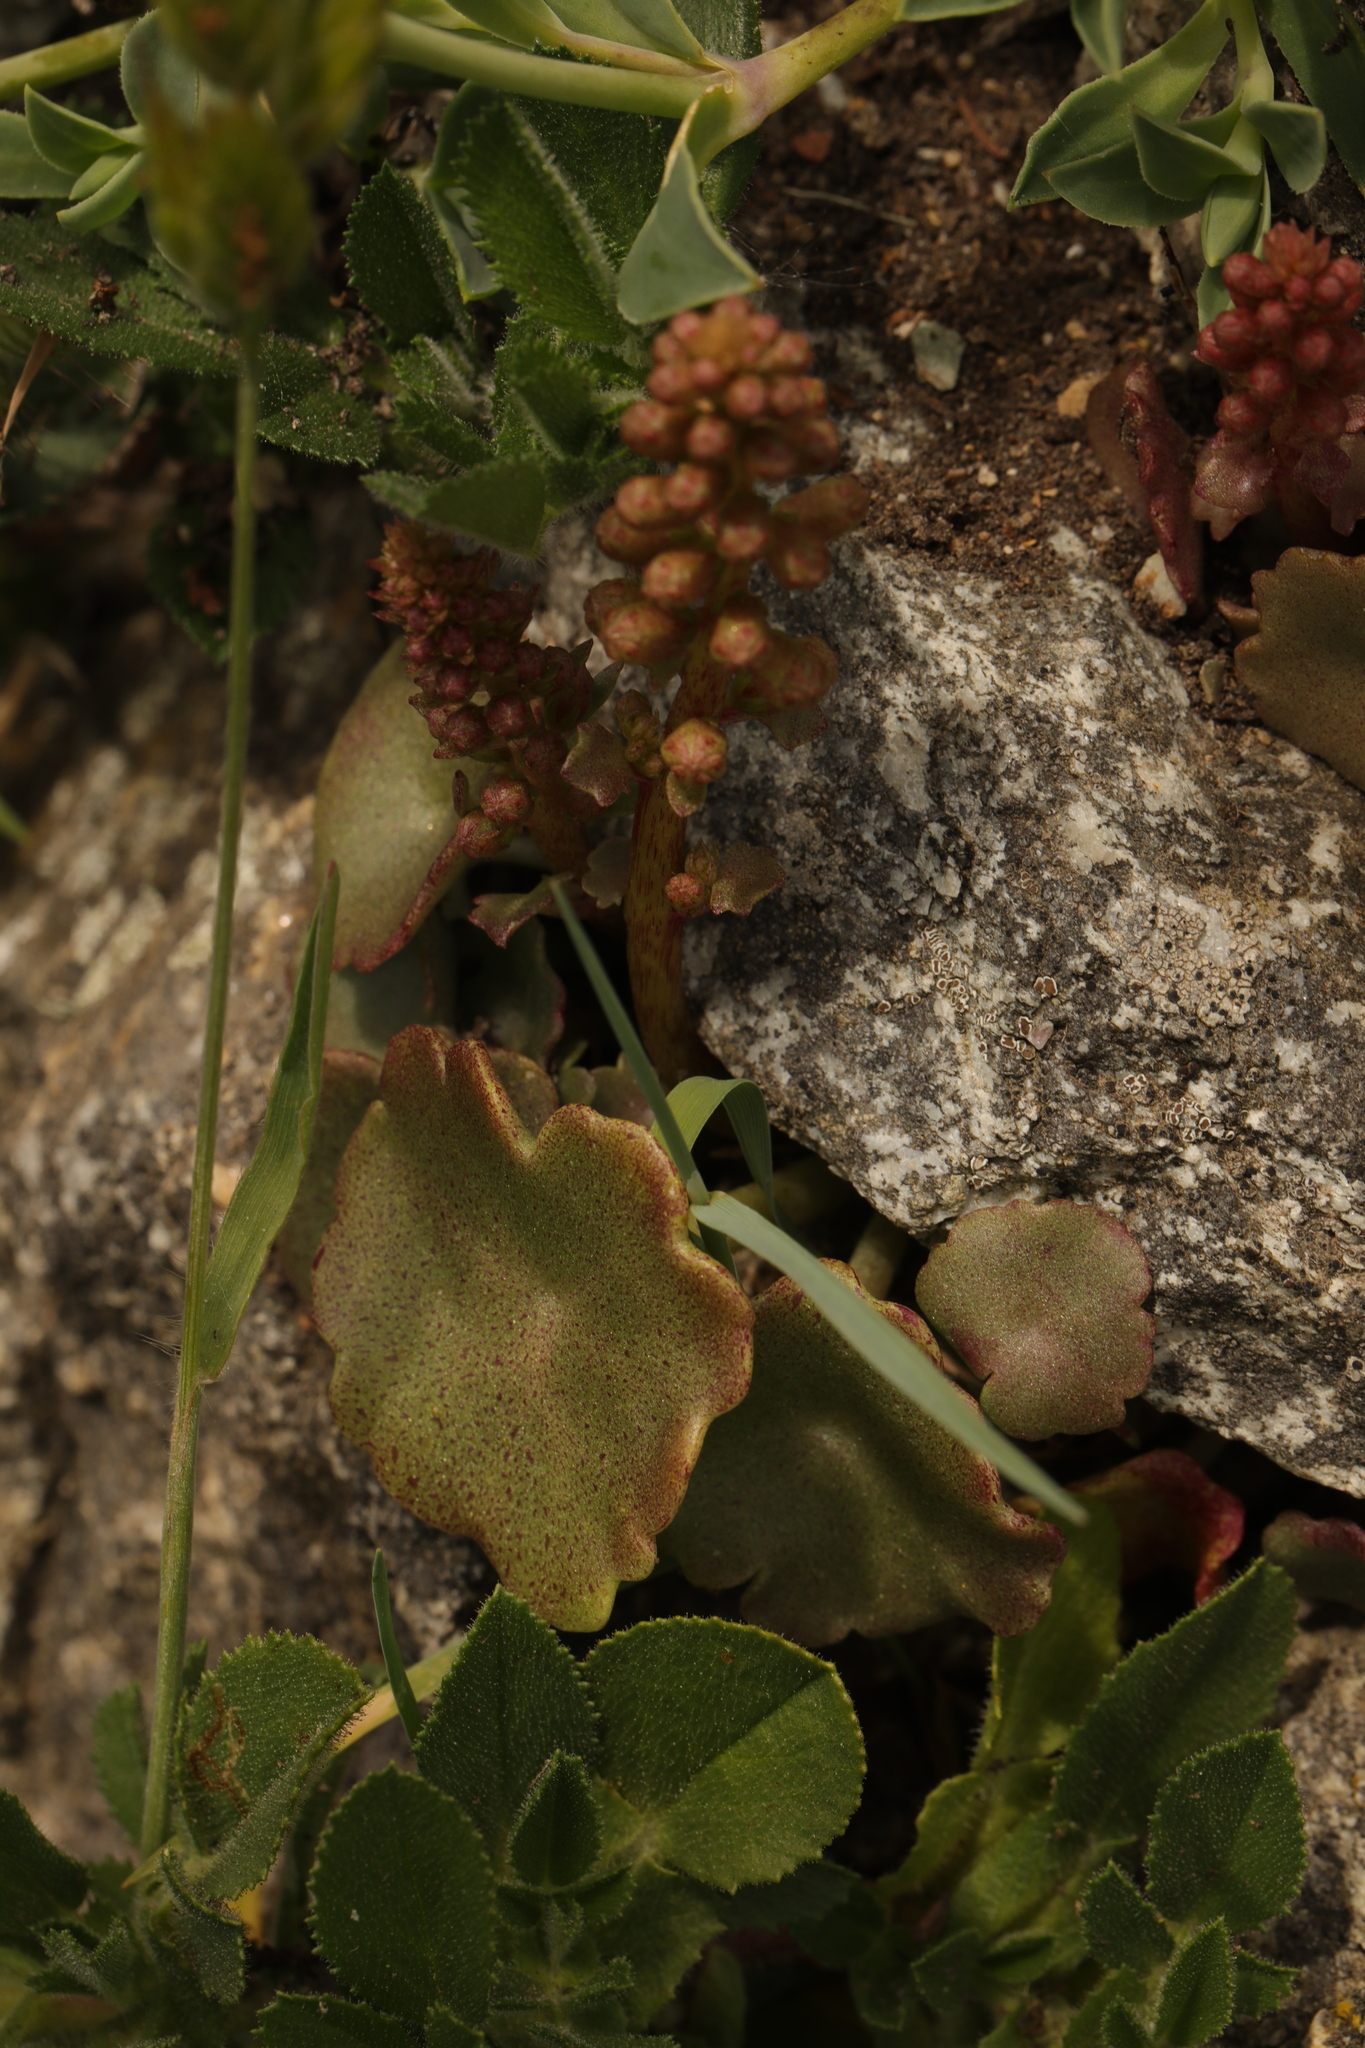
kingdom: Plantae
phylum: Tracheophyta
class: Magnoliopsida
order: Saxifragales
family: Crassulaceae
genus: Umbilicus
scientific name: Umbilicus rupestris
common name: Navelwort
